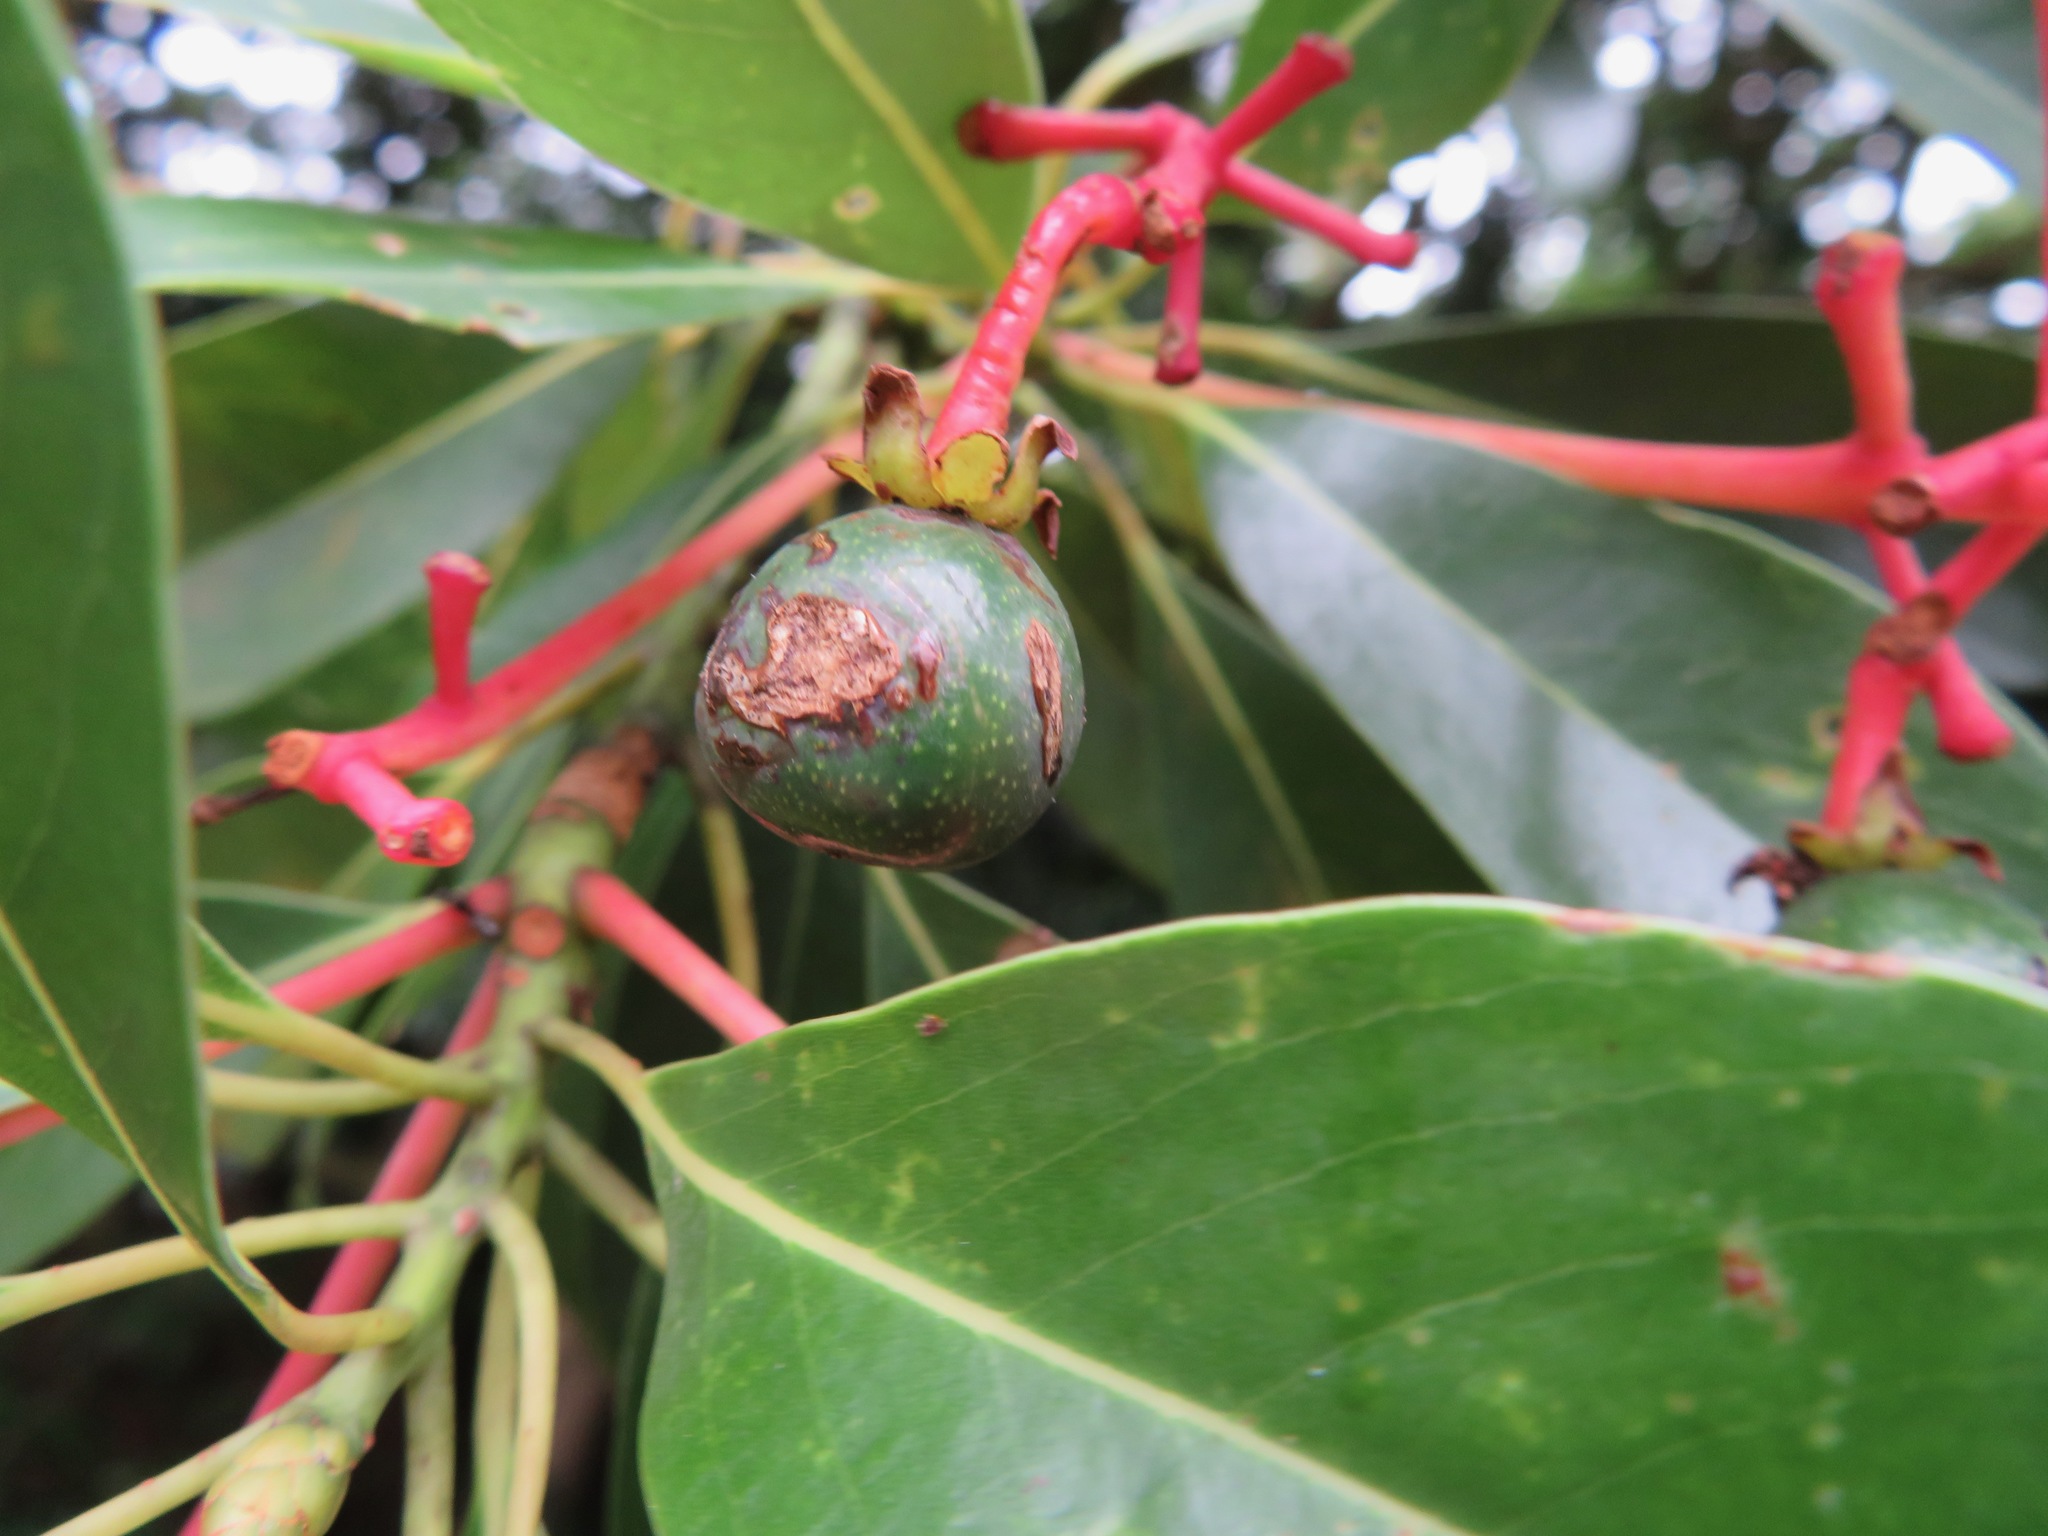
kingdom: Plantae
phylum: Tracheophyta
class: Magnoliopsida
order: Laurales
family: Lauraceae
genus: Machilus
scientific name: Machilus thunbergii
